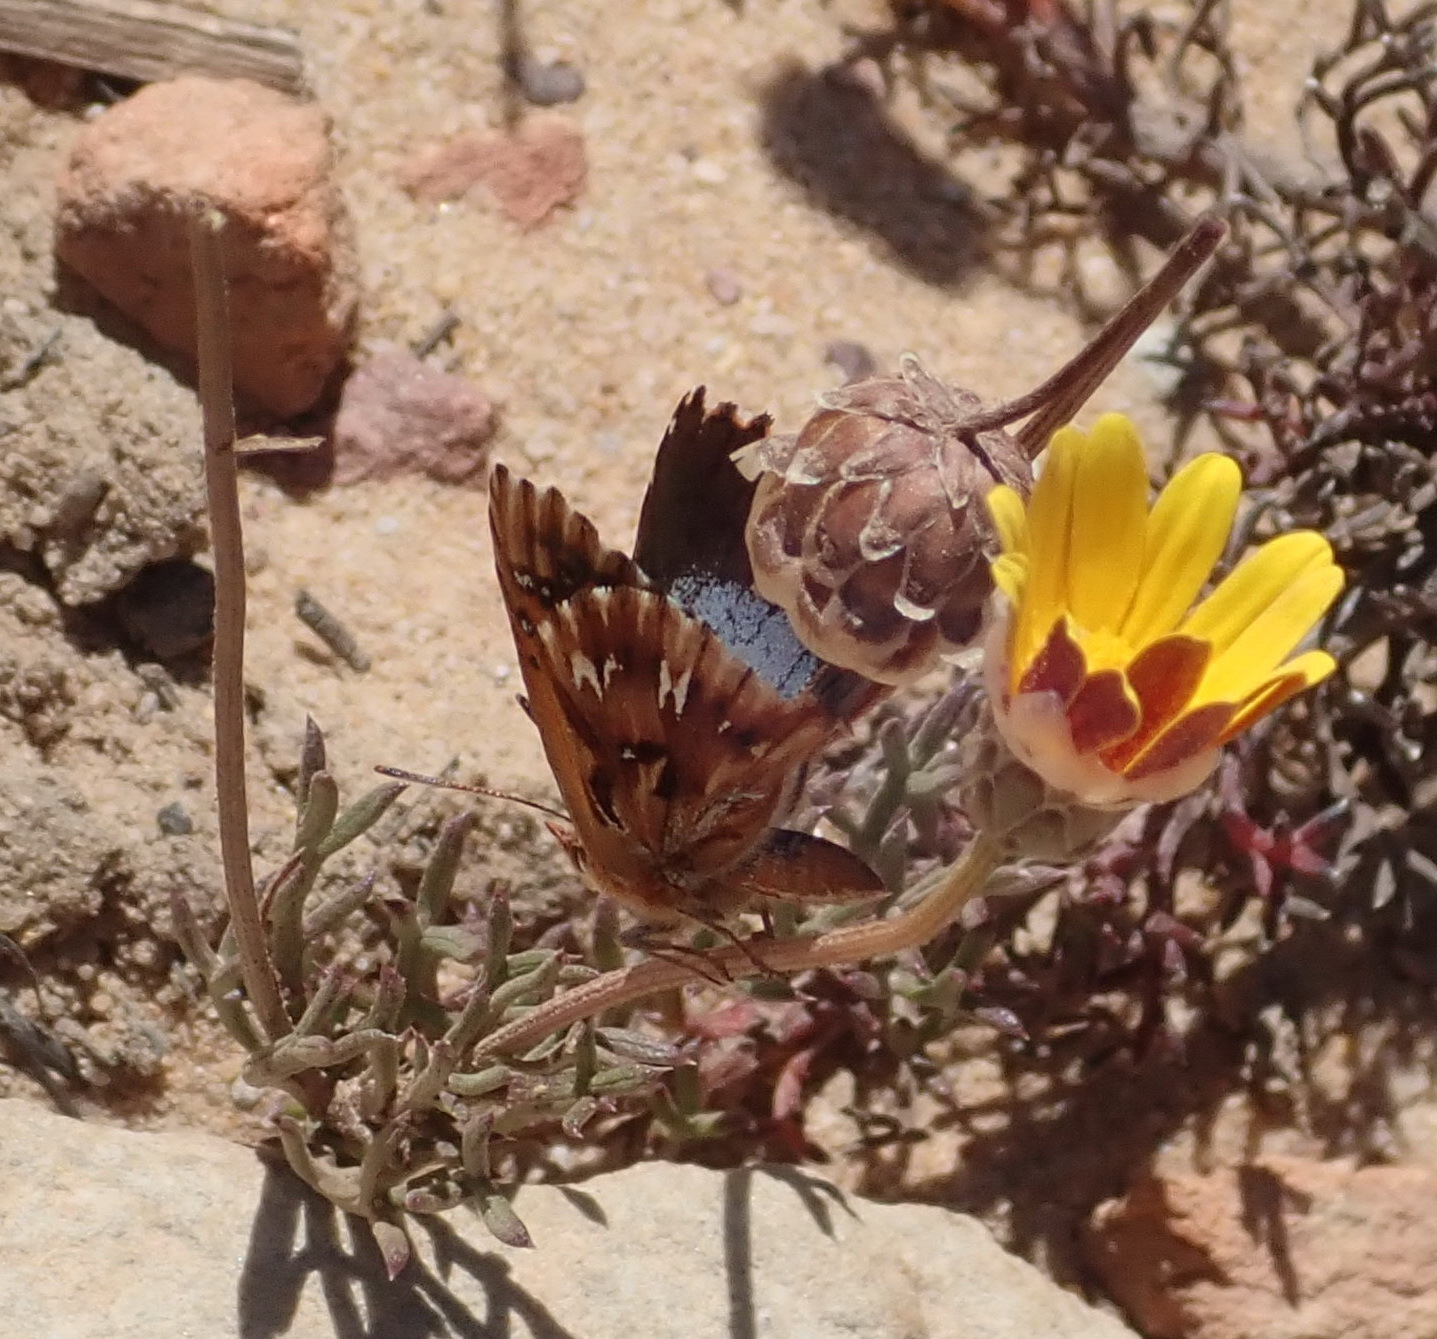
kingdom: Animalia
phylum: Arthropoda
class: Insecta
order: Lepidoptera
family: Lycaenidae
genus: Chrysoritis
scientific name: Chrysoritis
